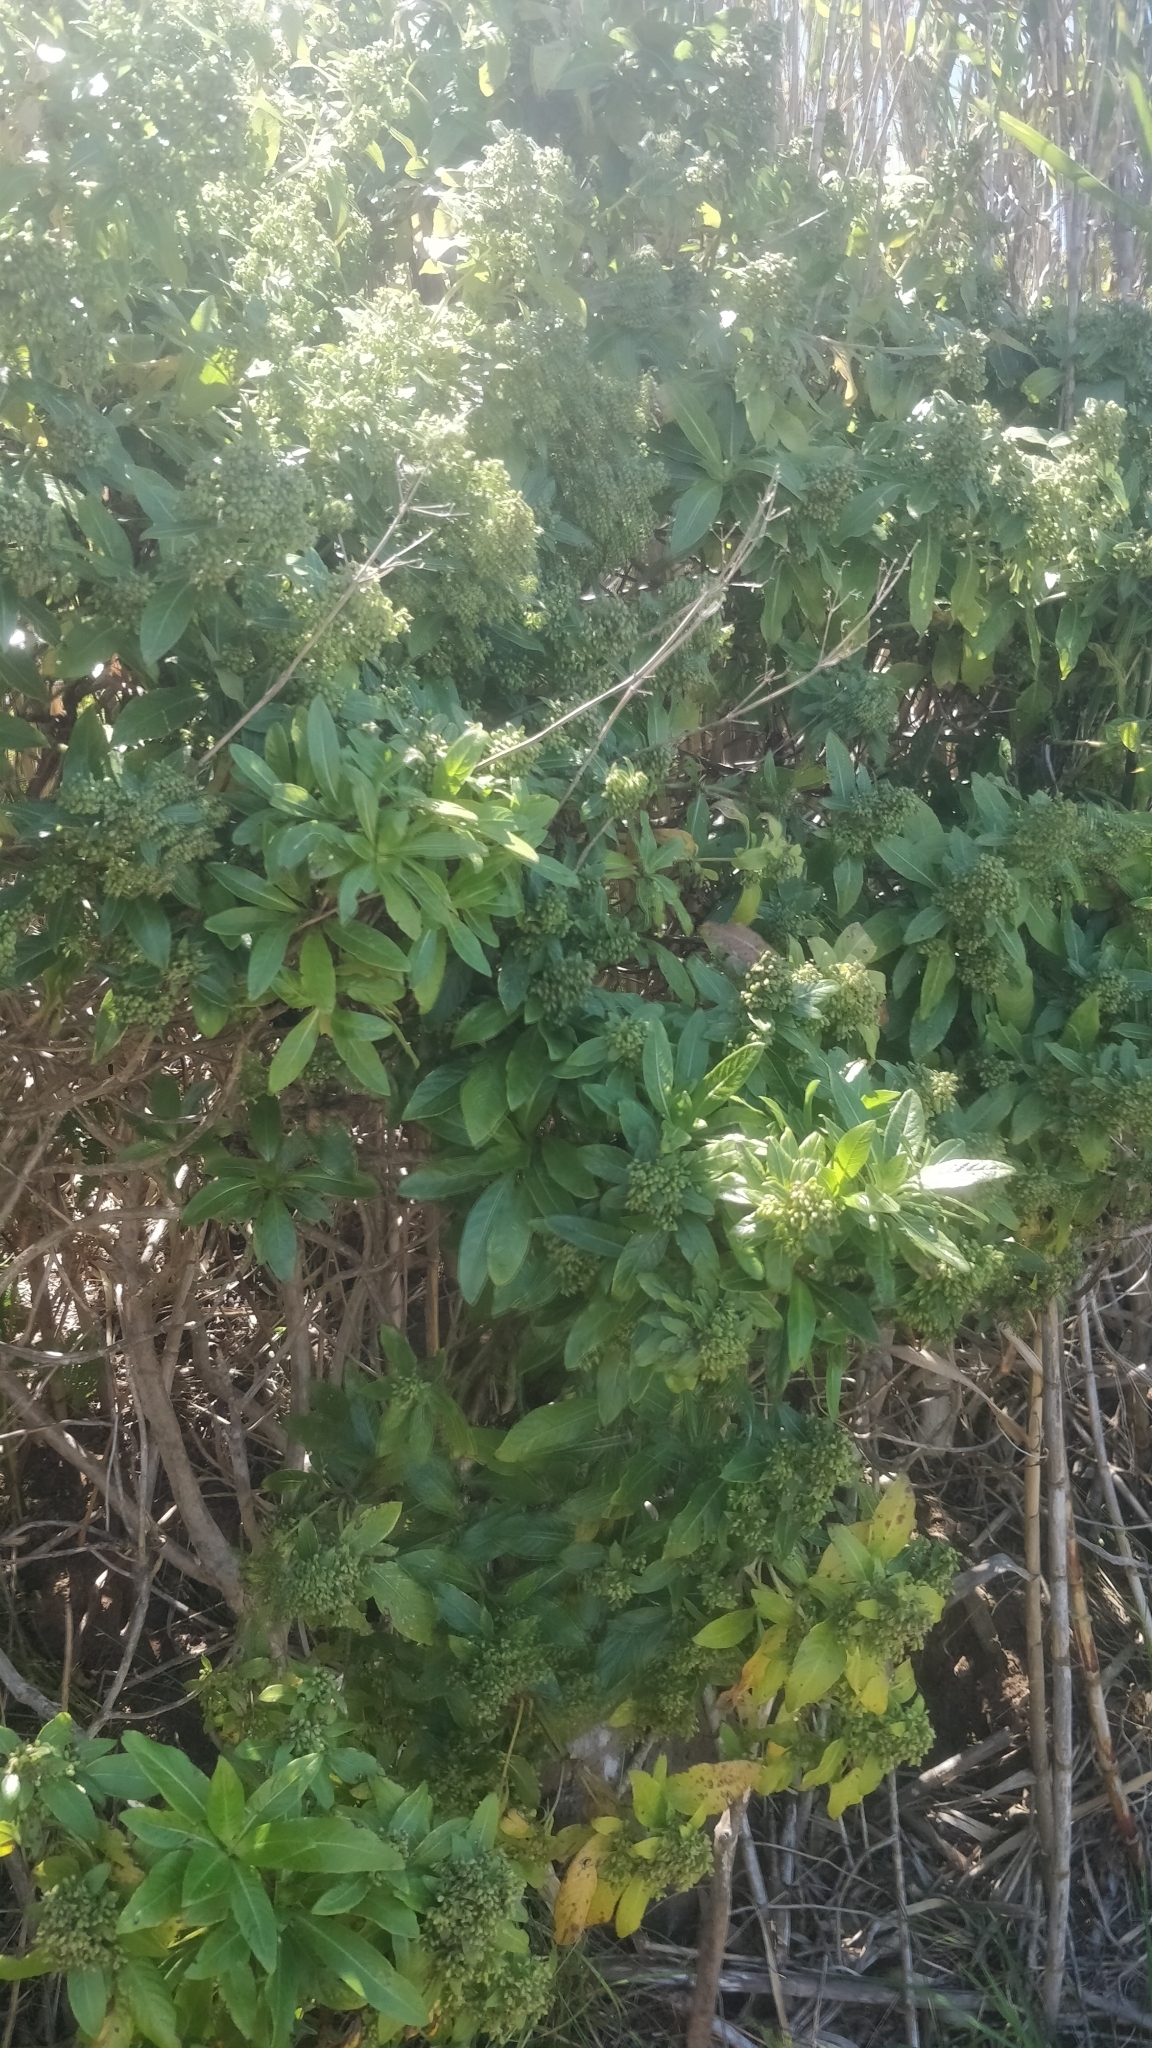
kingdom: Plantae
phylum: Tracheophyta
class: Magnoliopsida
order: Gentianales
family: Rubiaceae
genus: Phyllis
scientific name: Phyllis nobla
